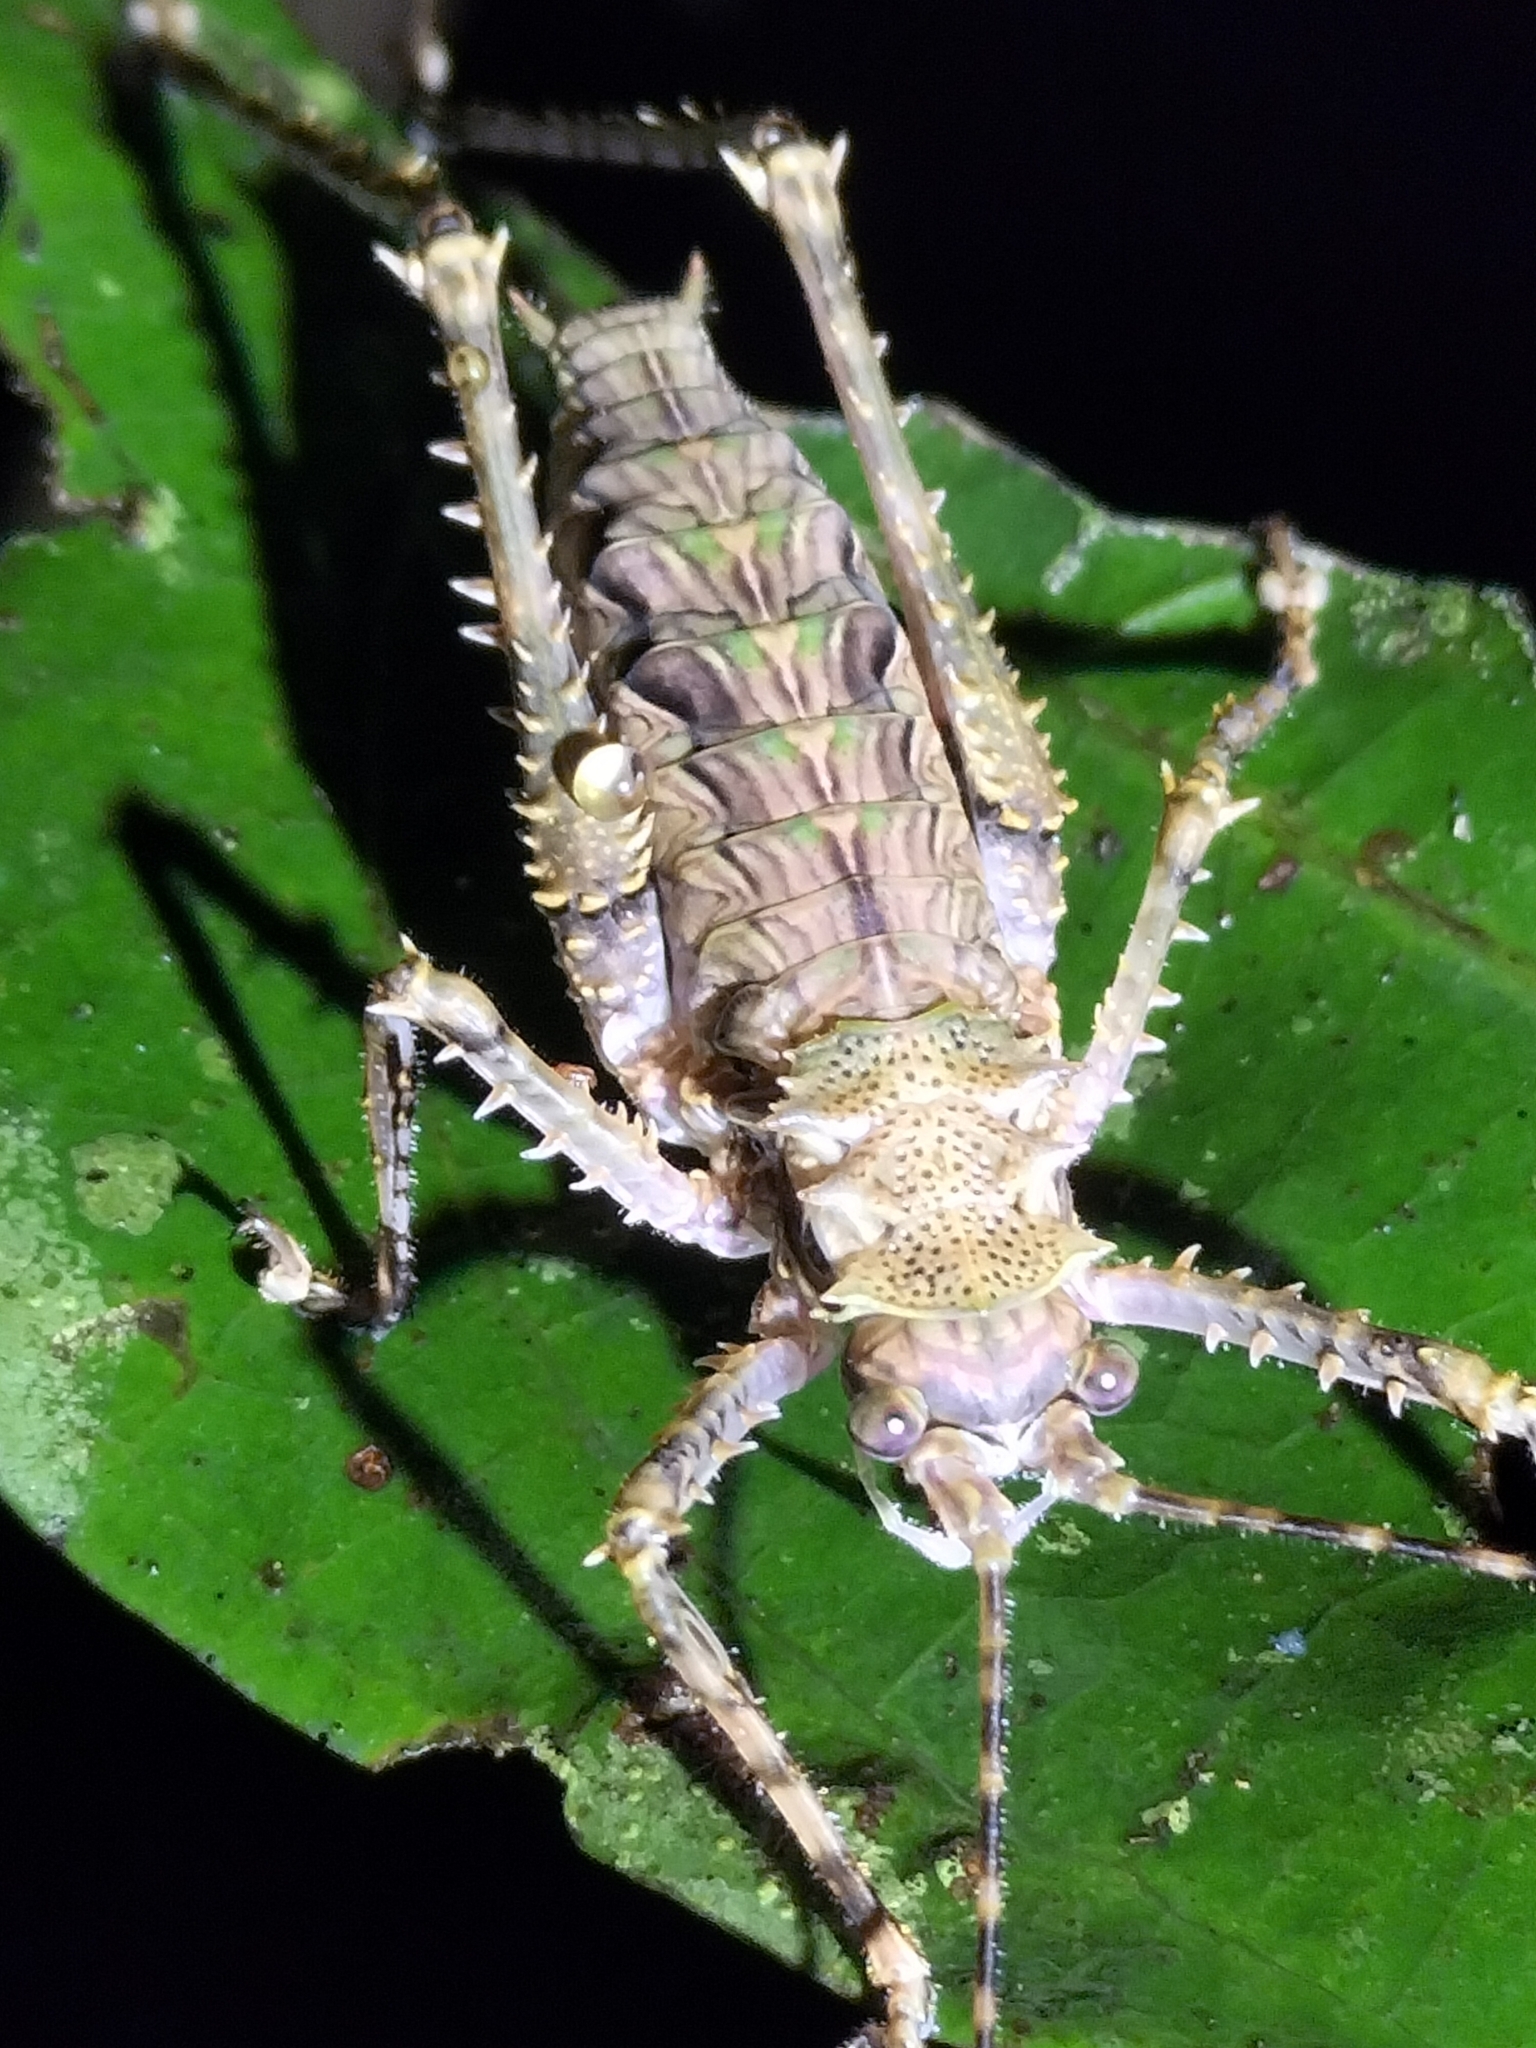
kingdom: Animalia
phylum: Arthropoda
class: Insecta
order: Orthoptera
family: Tettigoniidae
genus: Phricta
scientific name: Phricta spinosa
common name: Giant spiny forest katydid
